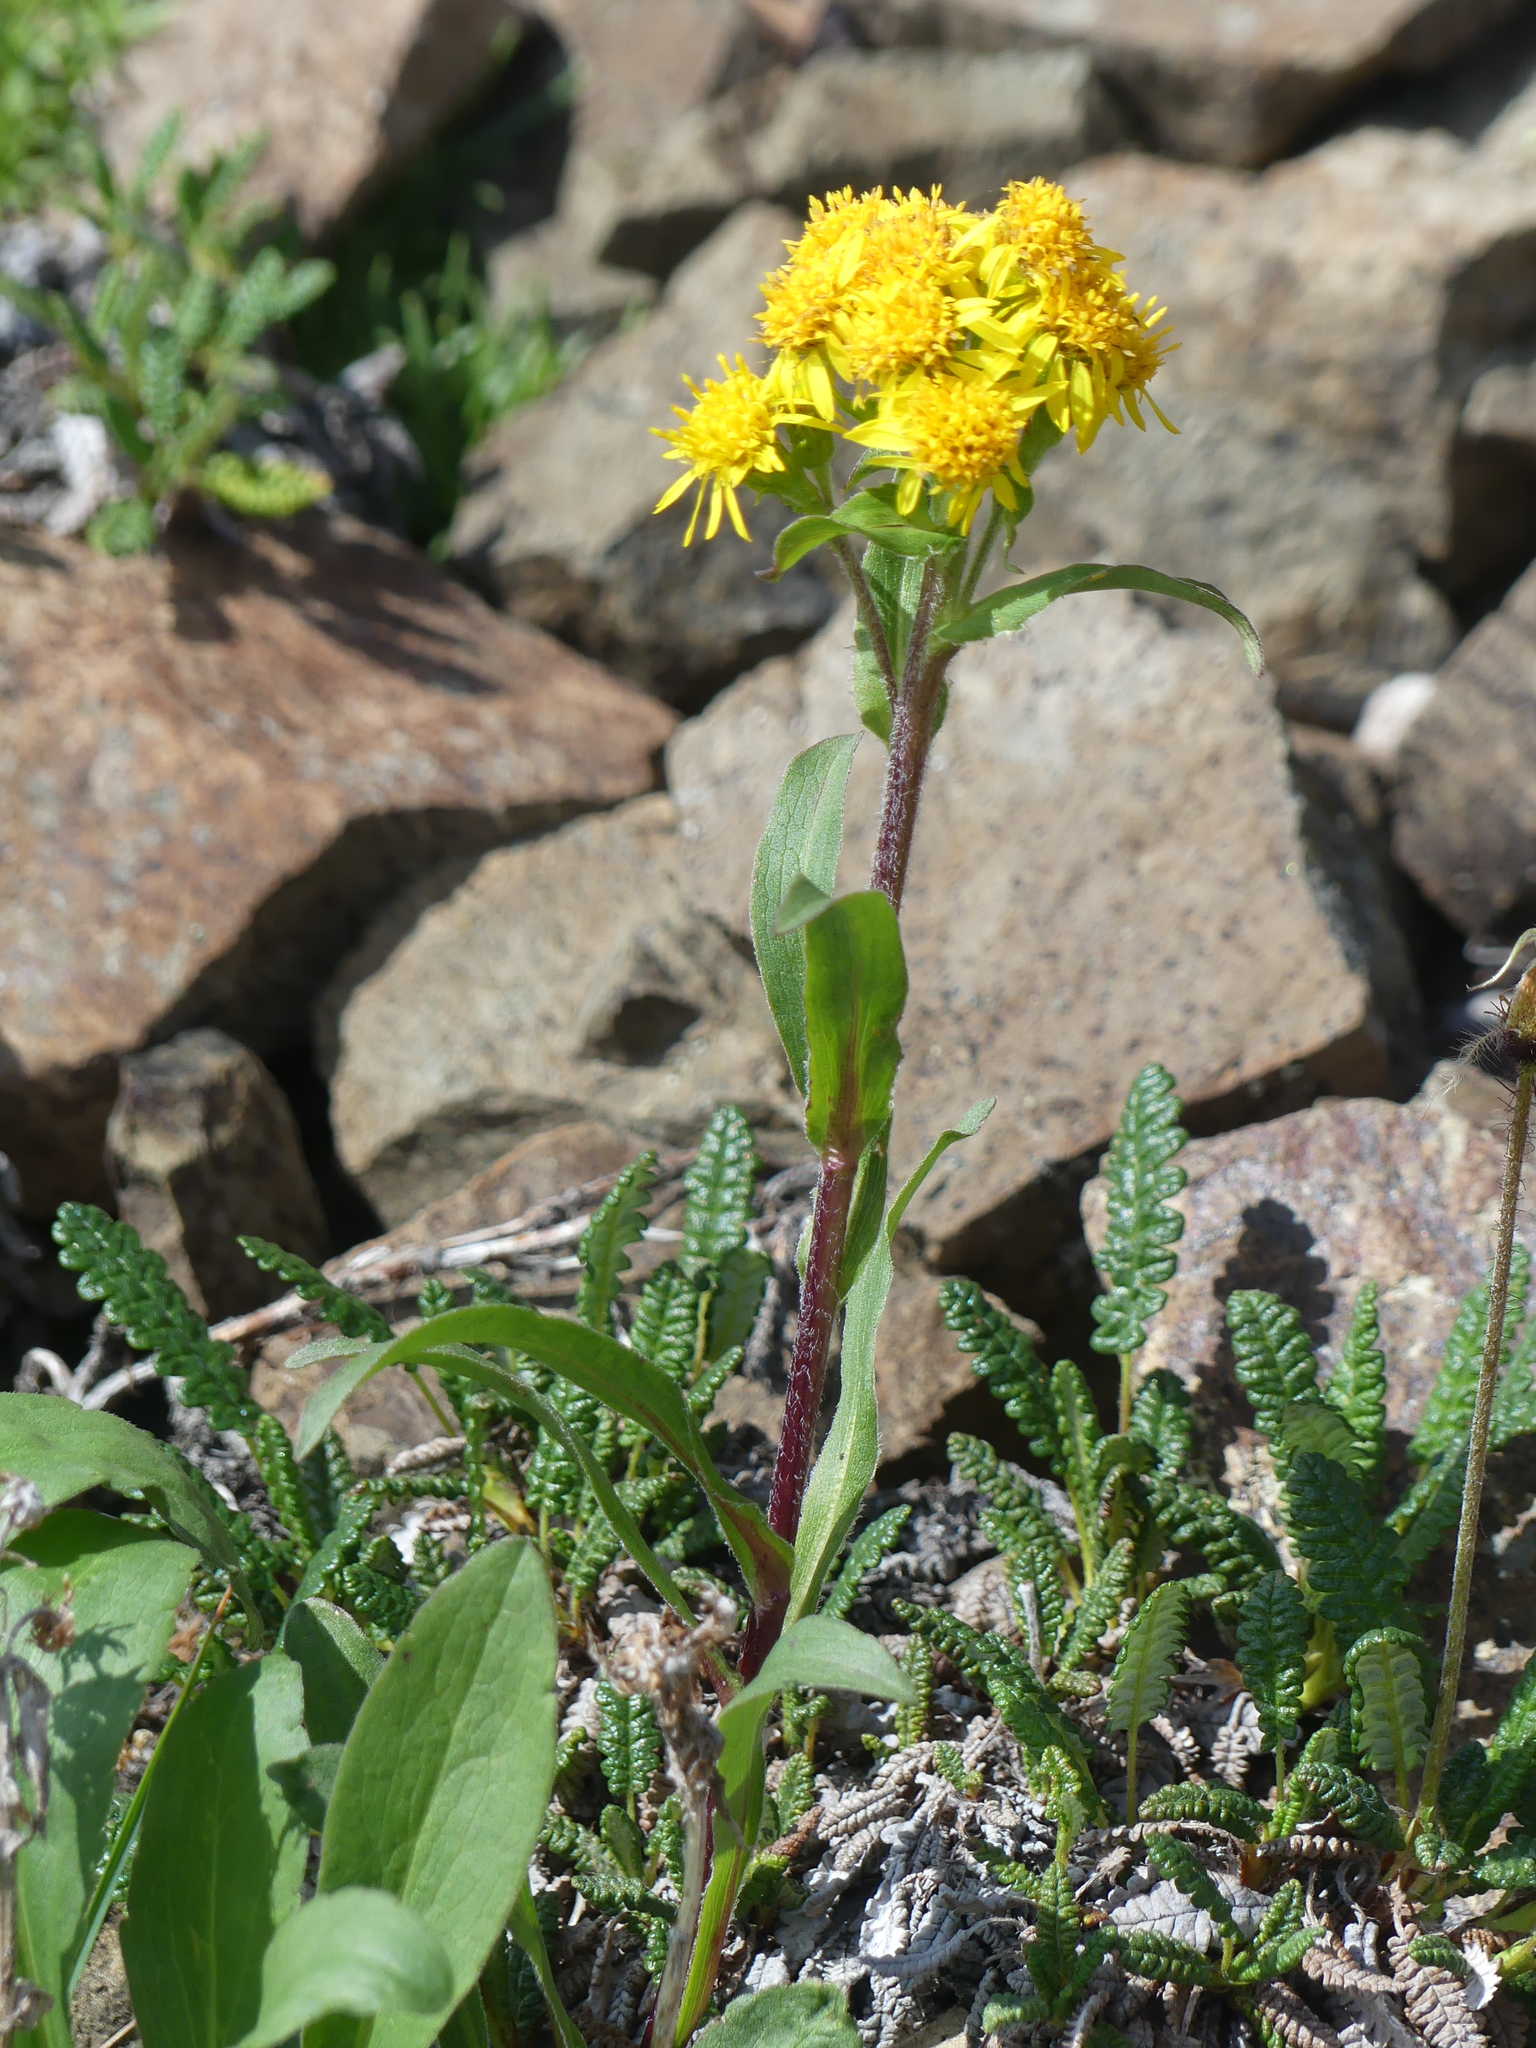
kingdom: Plantae
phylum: Tracheophyta
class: Magnoliopsida
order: Asterales
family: Asteraceae
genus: Solidago
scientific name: Solidago multiradiata
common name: Northern goldenrod
